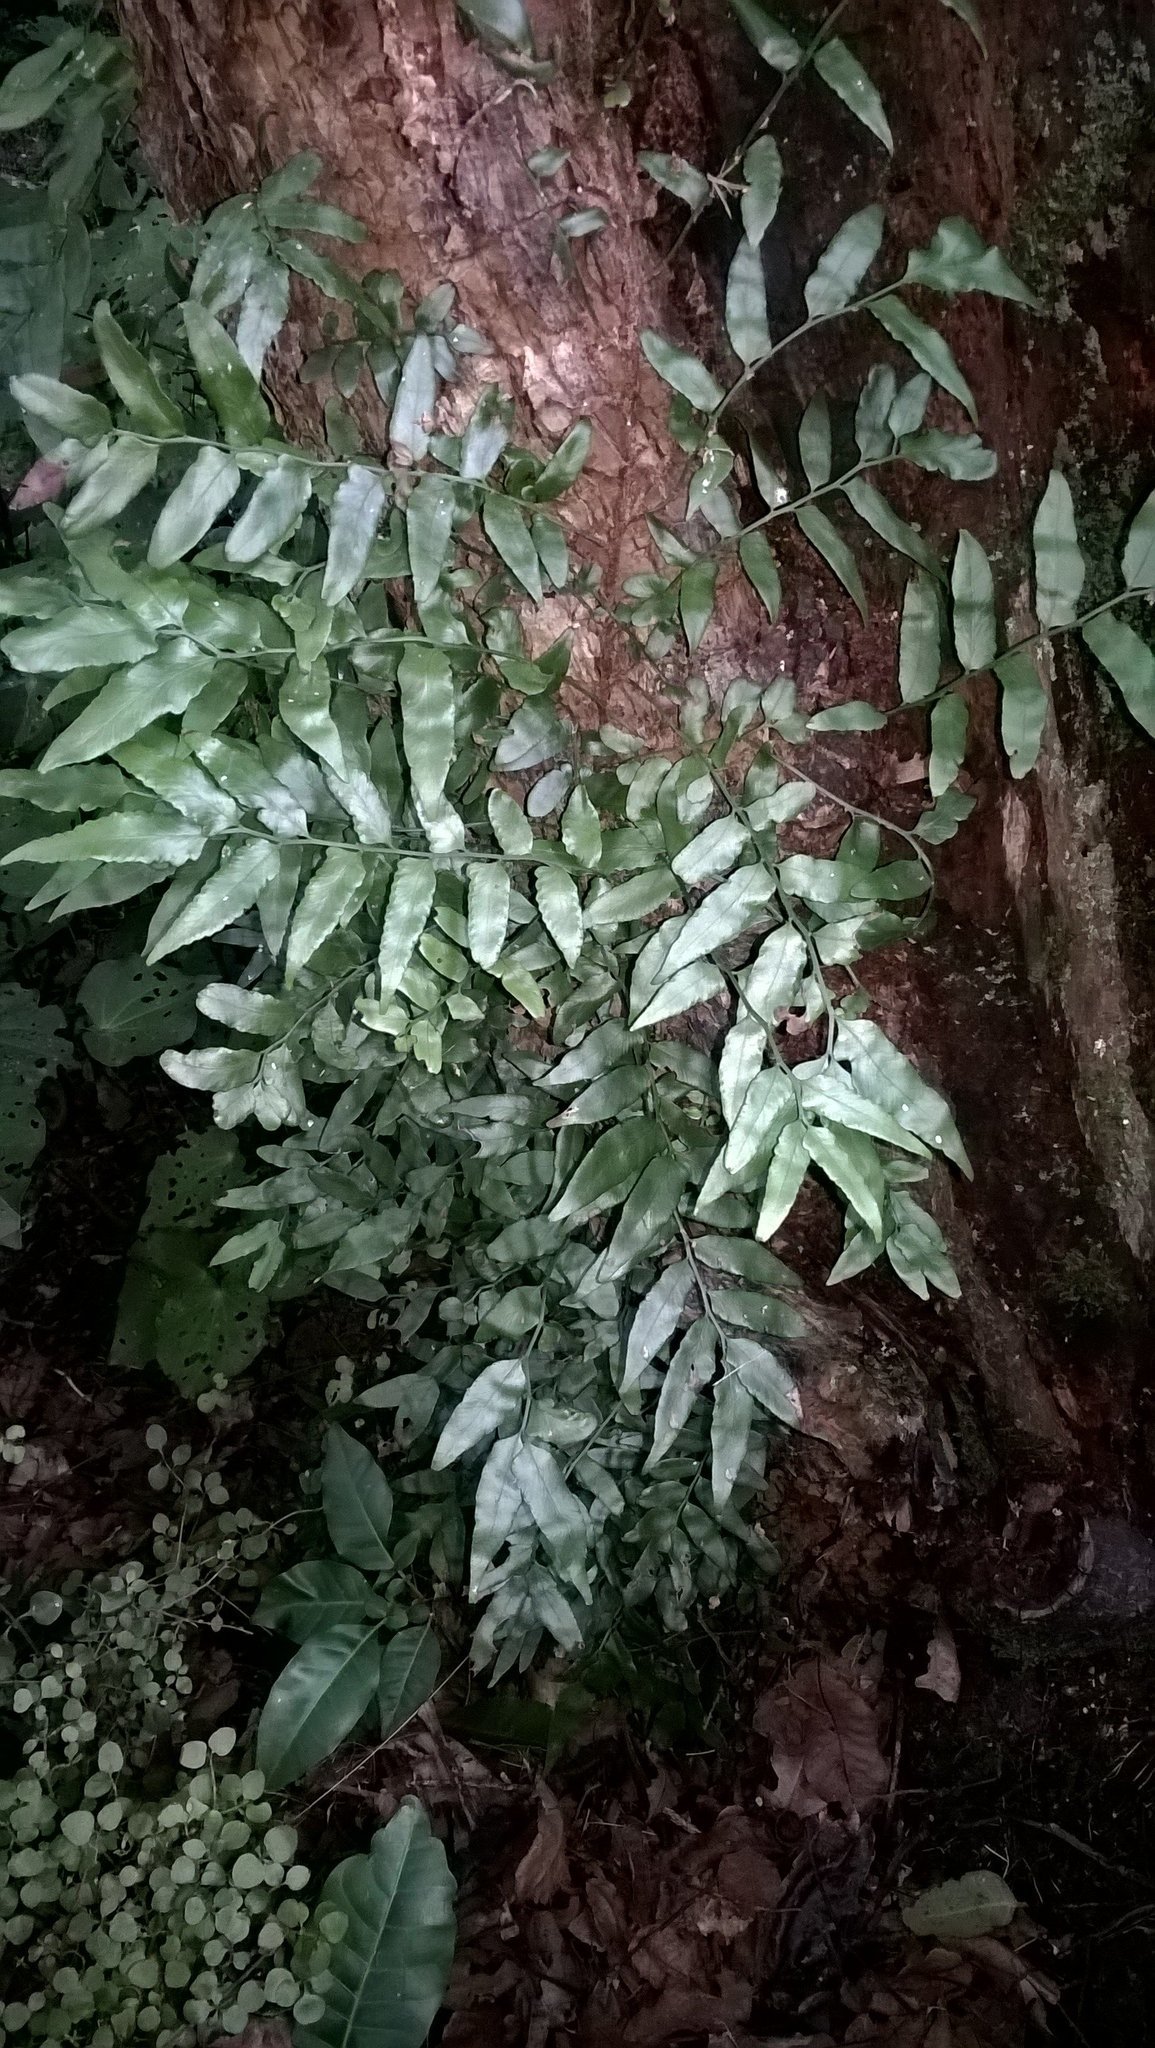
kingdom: Plantae
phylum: Tracheophyta
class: Polypodiopsida
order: Polypodiales
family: Tectariaceae
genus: Arthropteris
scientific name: Arthropteris tenella
